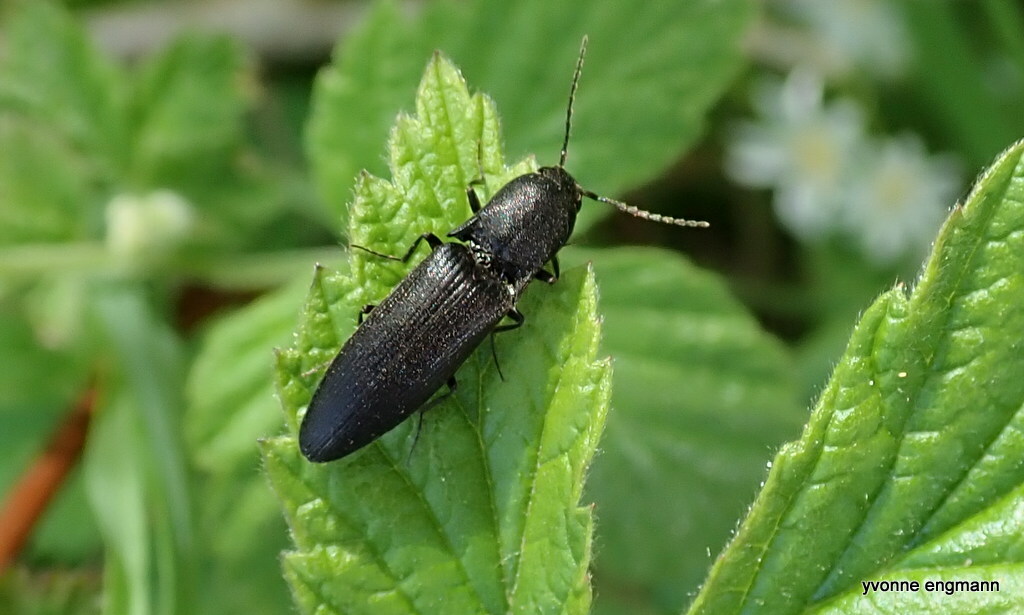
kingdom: Animalia
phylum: Arthropoda
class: Insecta
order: Coleoptera
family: Elateridae
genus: Ectinus
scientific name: Ectinus aterrimus
